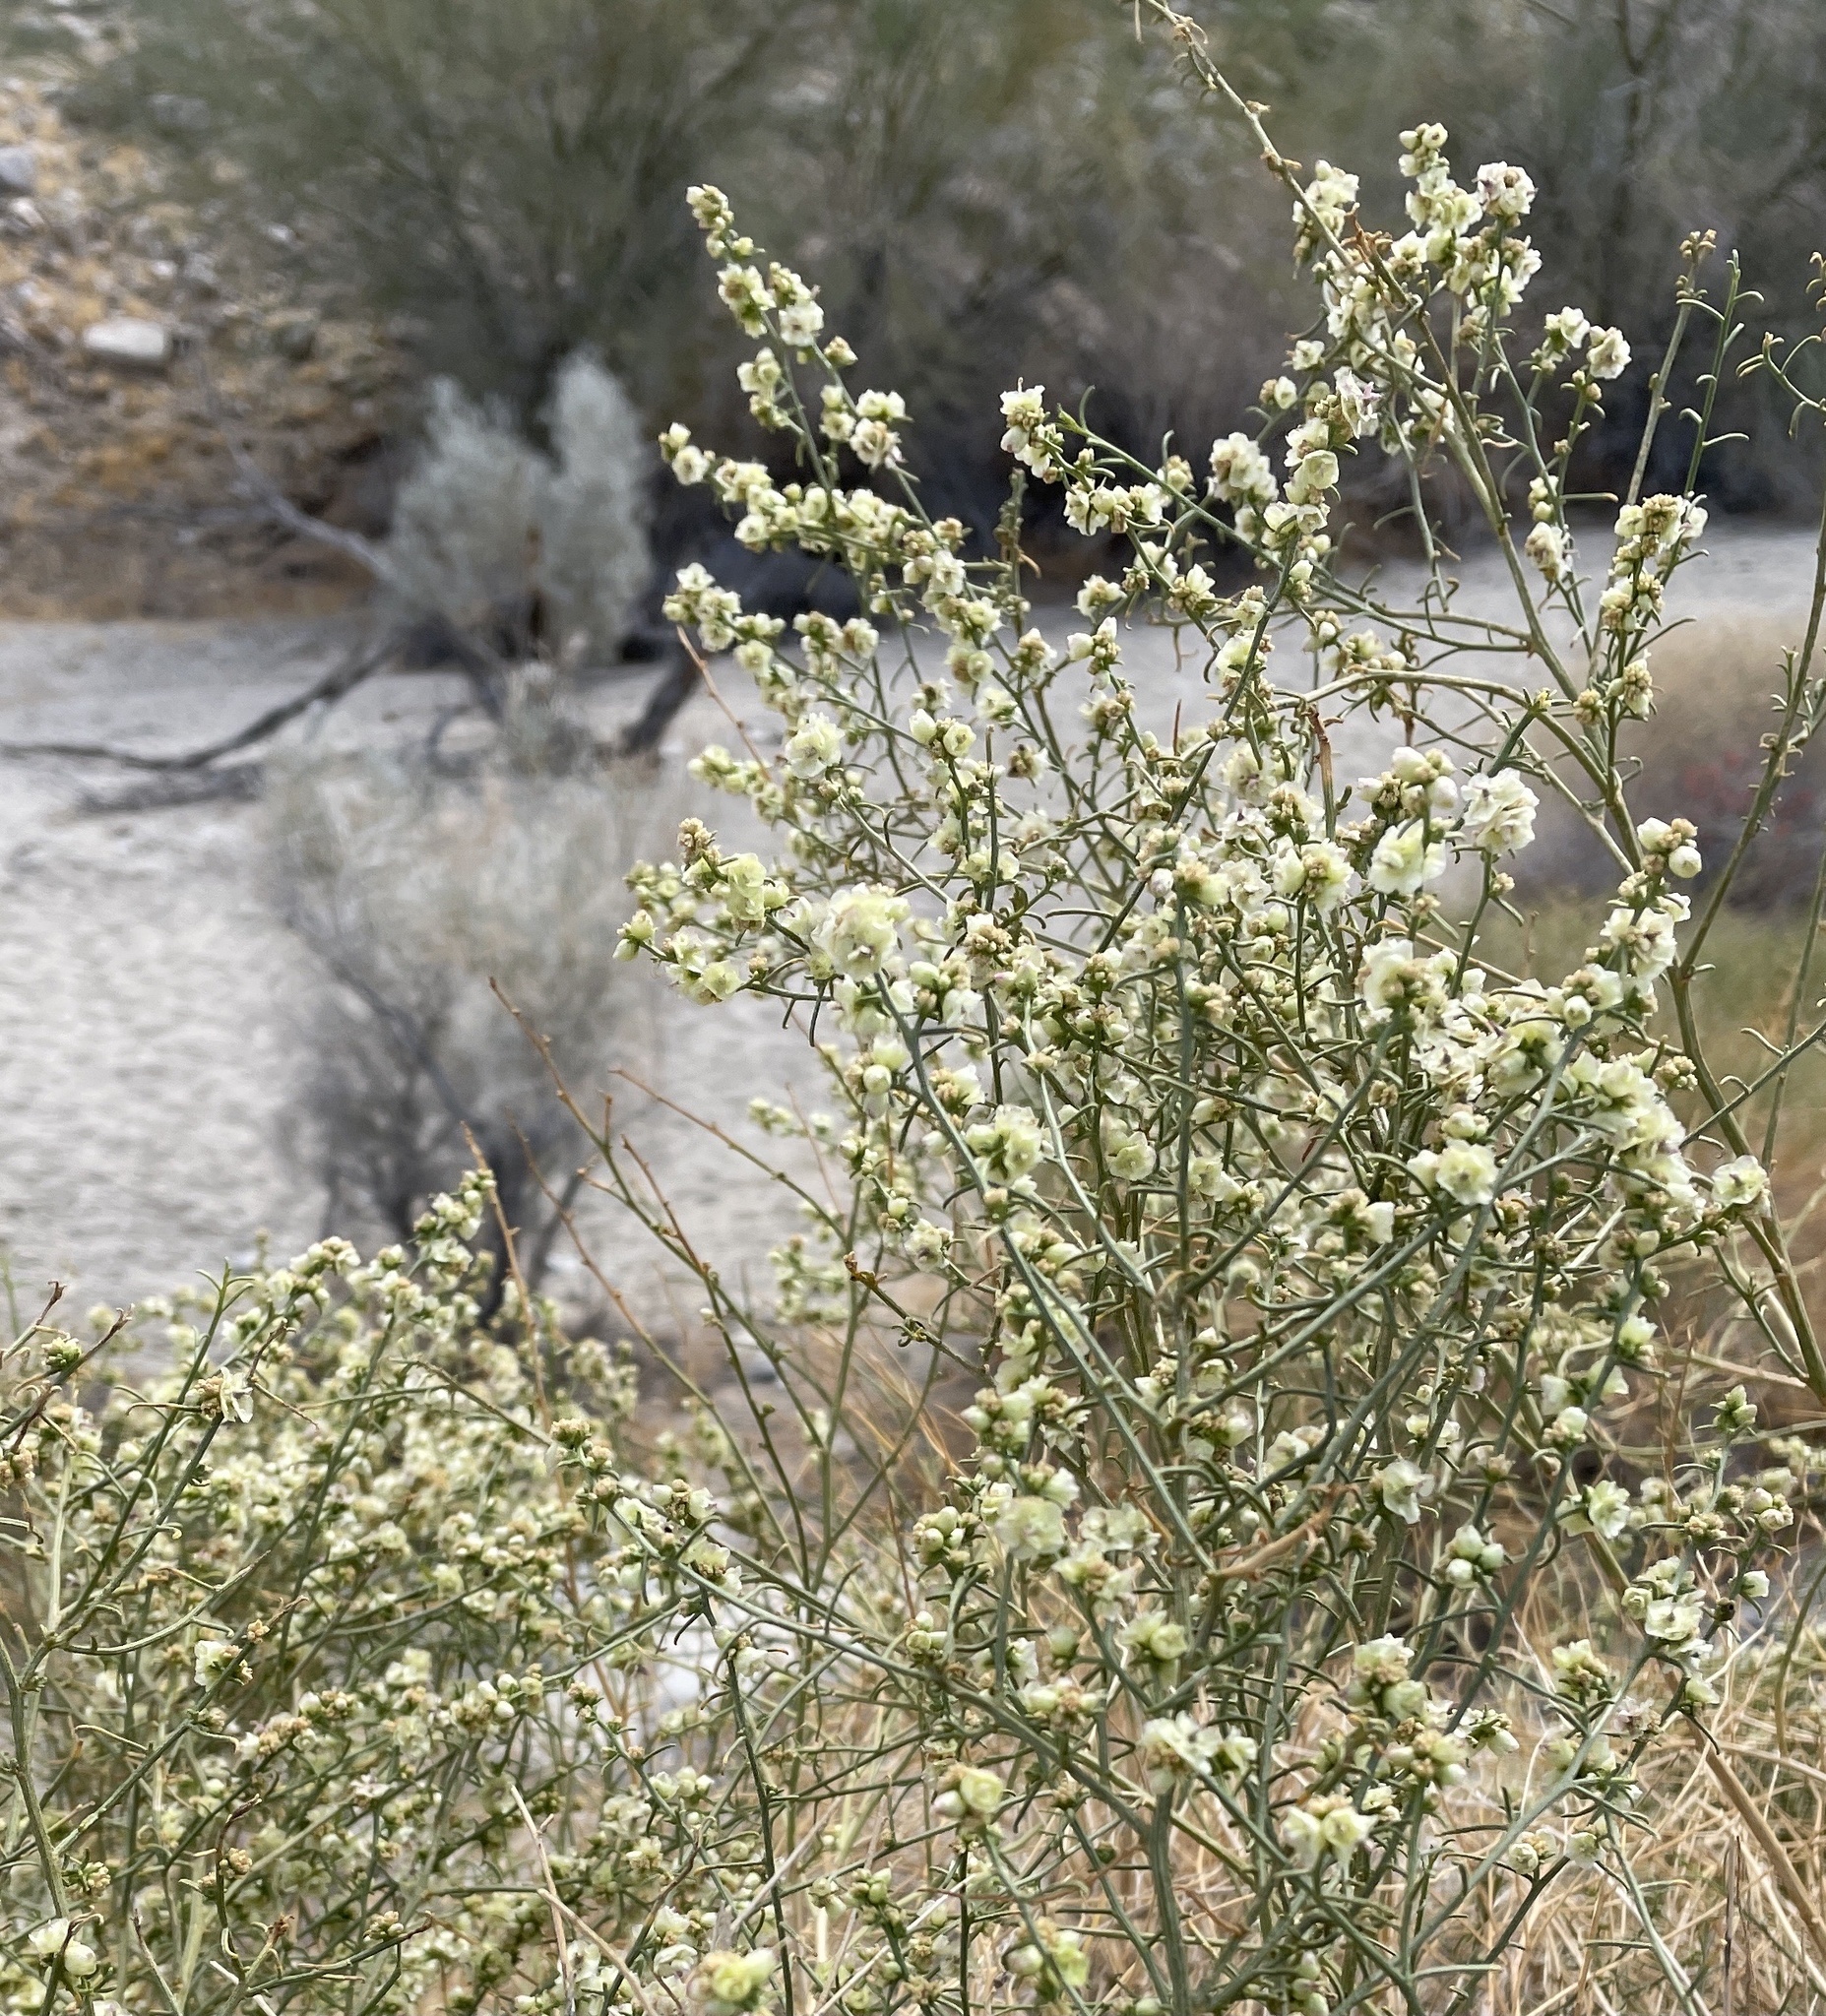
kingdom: Plantae
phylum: Tracheophyta
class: Magnoliopsida
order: Asterales
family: Asteraceae
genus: Ambrosia
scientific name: Ambrosia salsola
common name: Burrobrush
